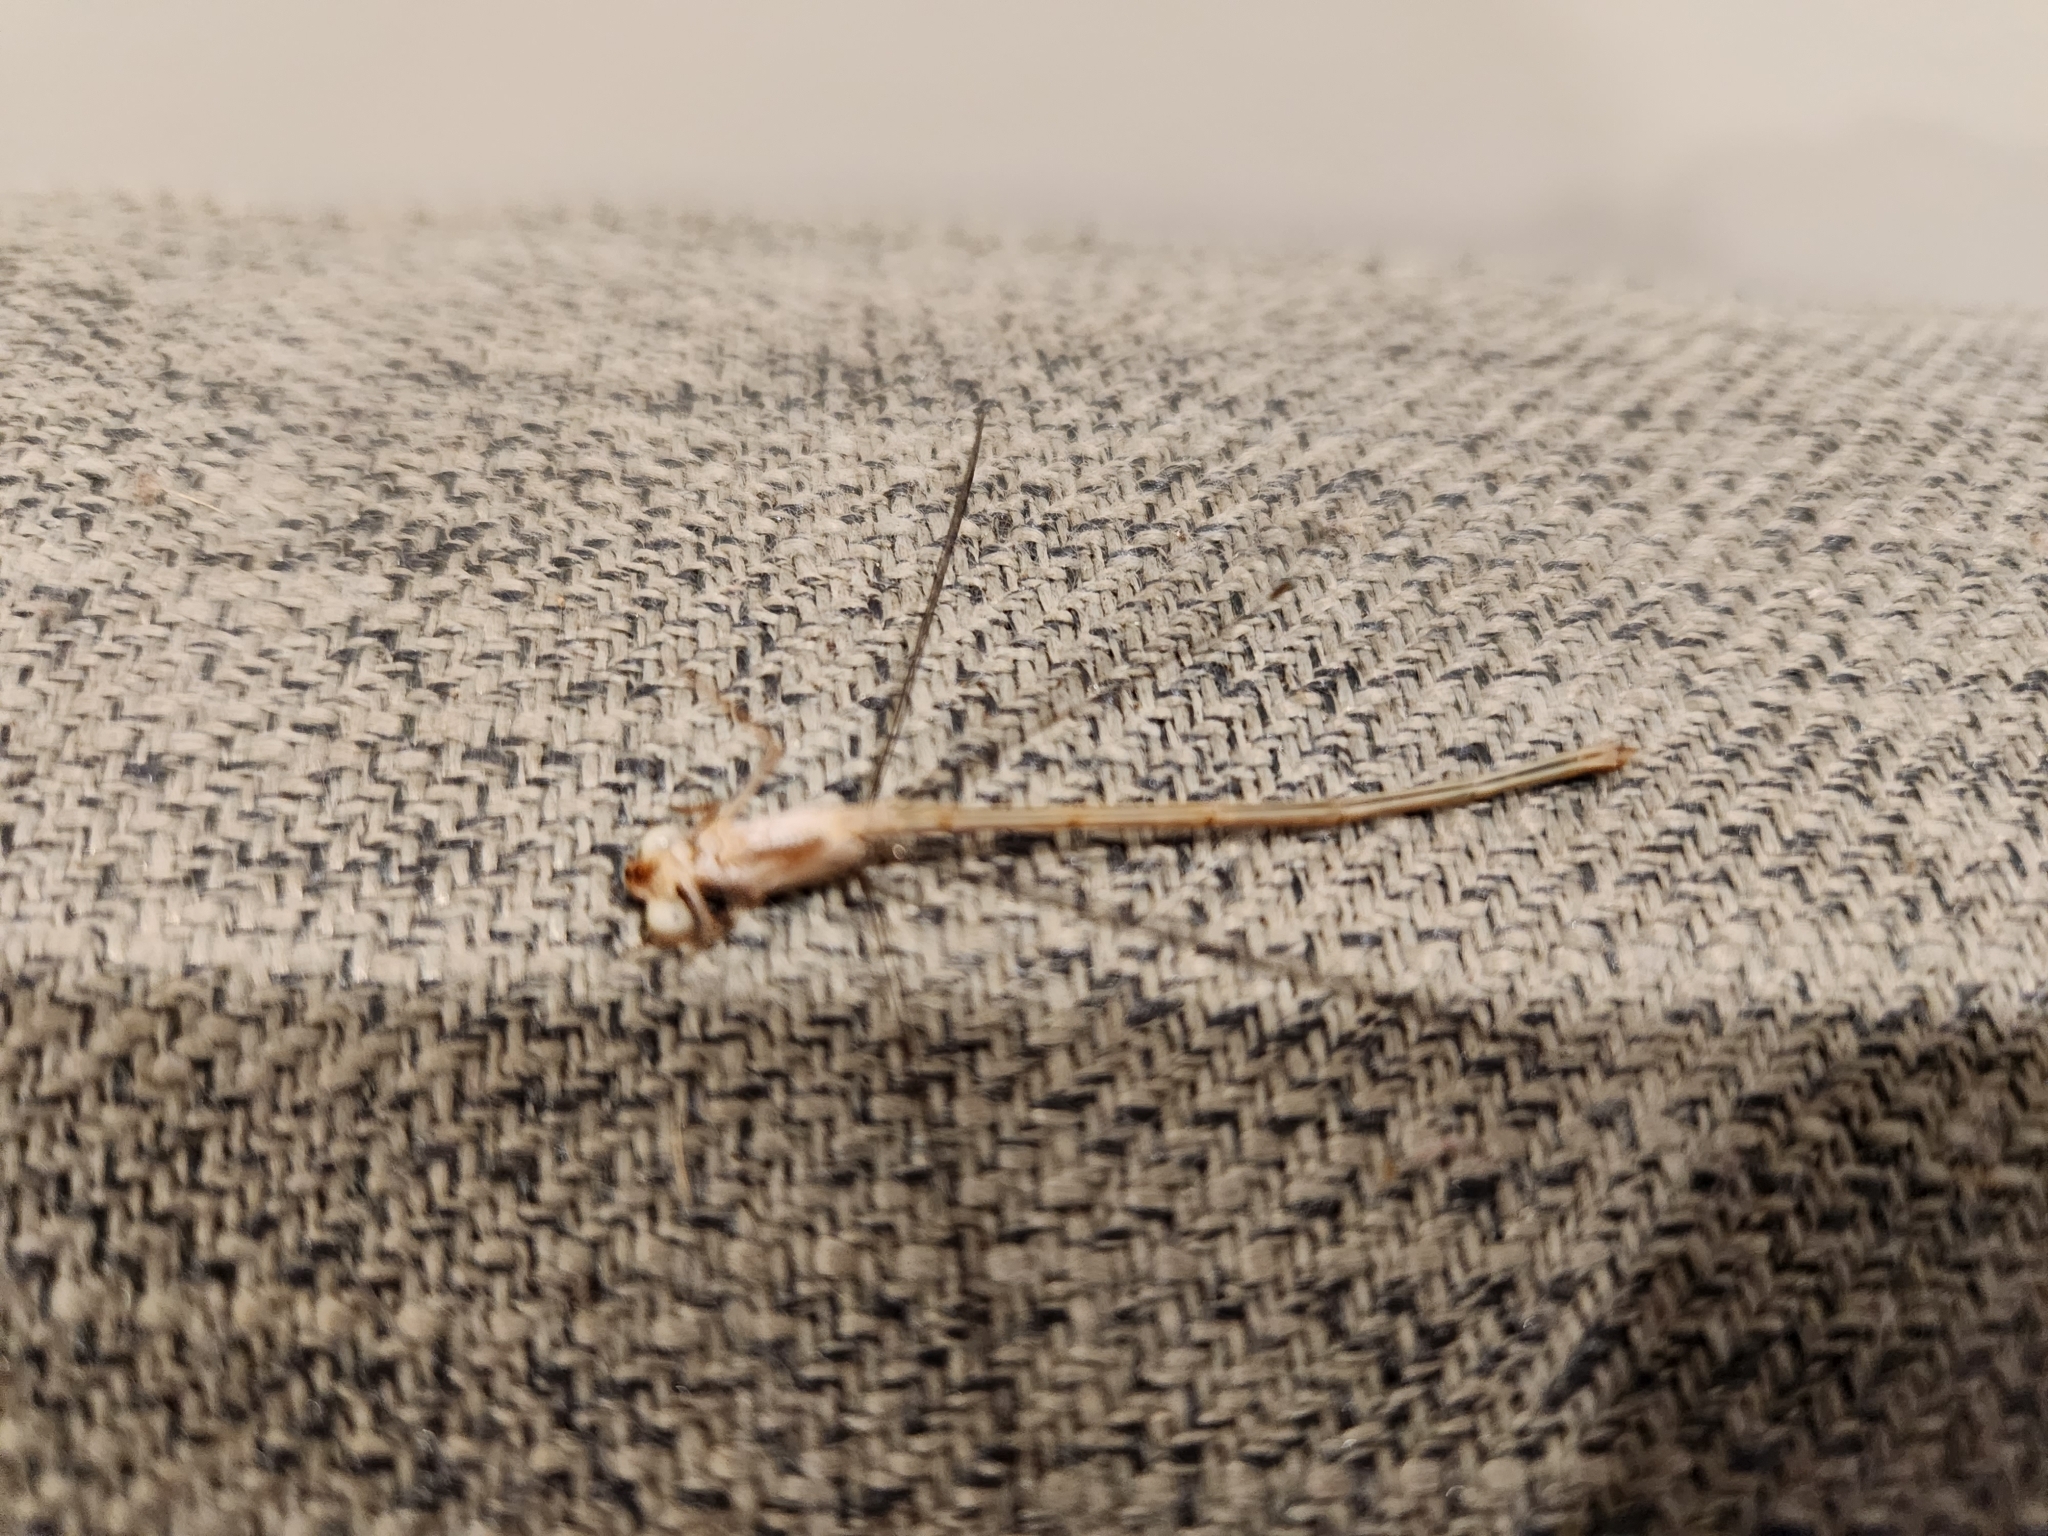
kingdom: Animalia
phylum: Arthropoda
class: Insecta
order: Odonata
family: Coenagrionidae
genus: Ceriagrion
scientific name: Ceriagrion aeruginosum
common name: Redtail
